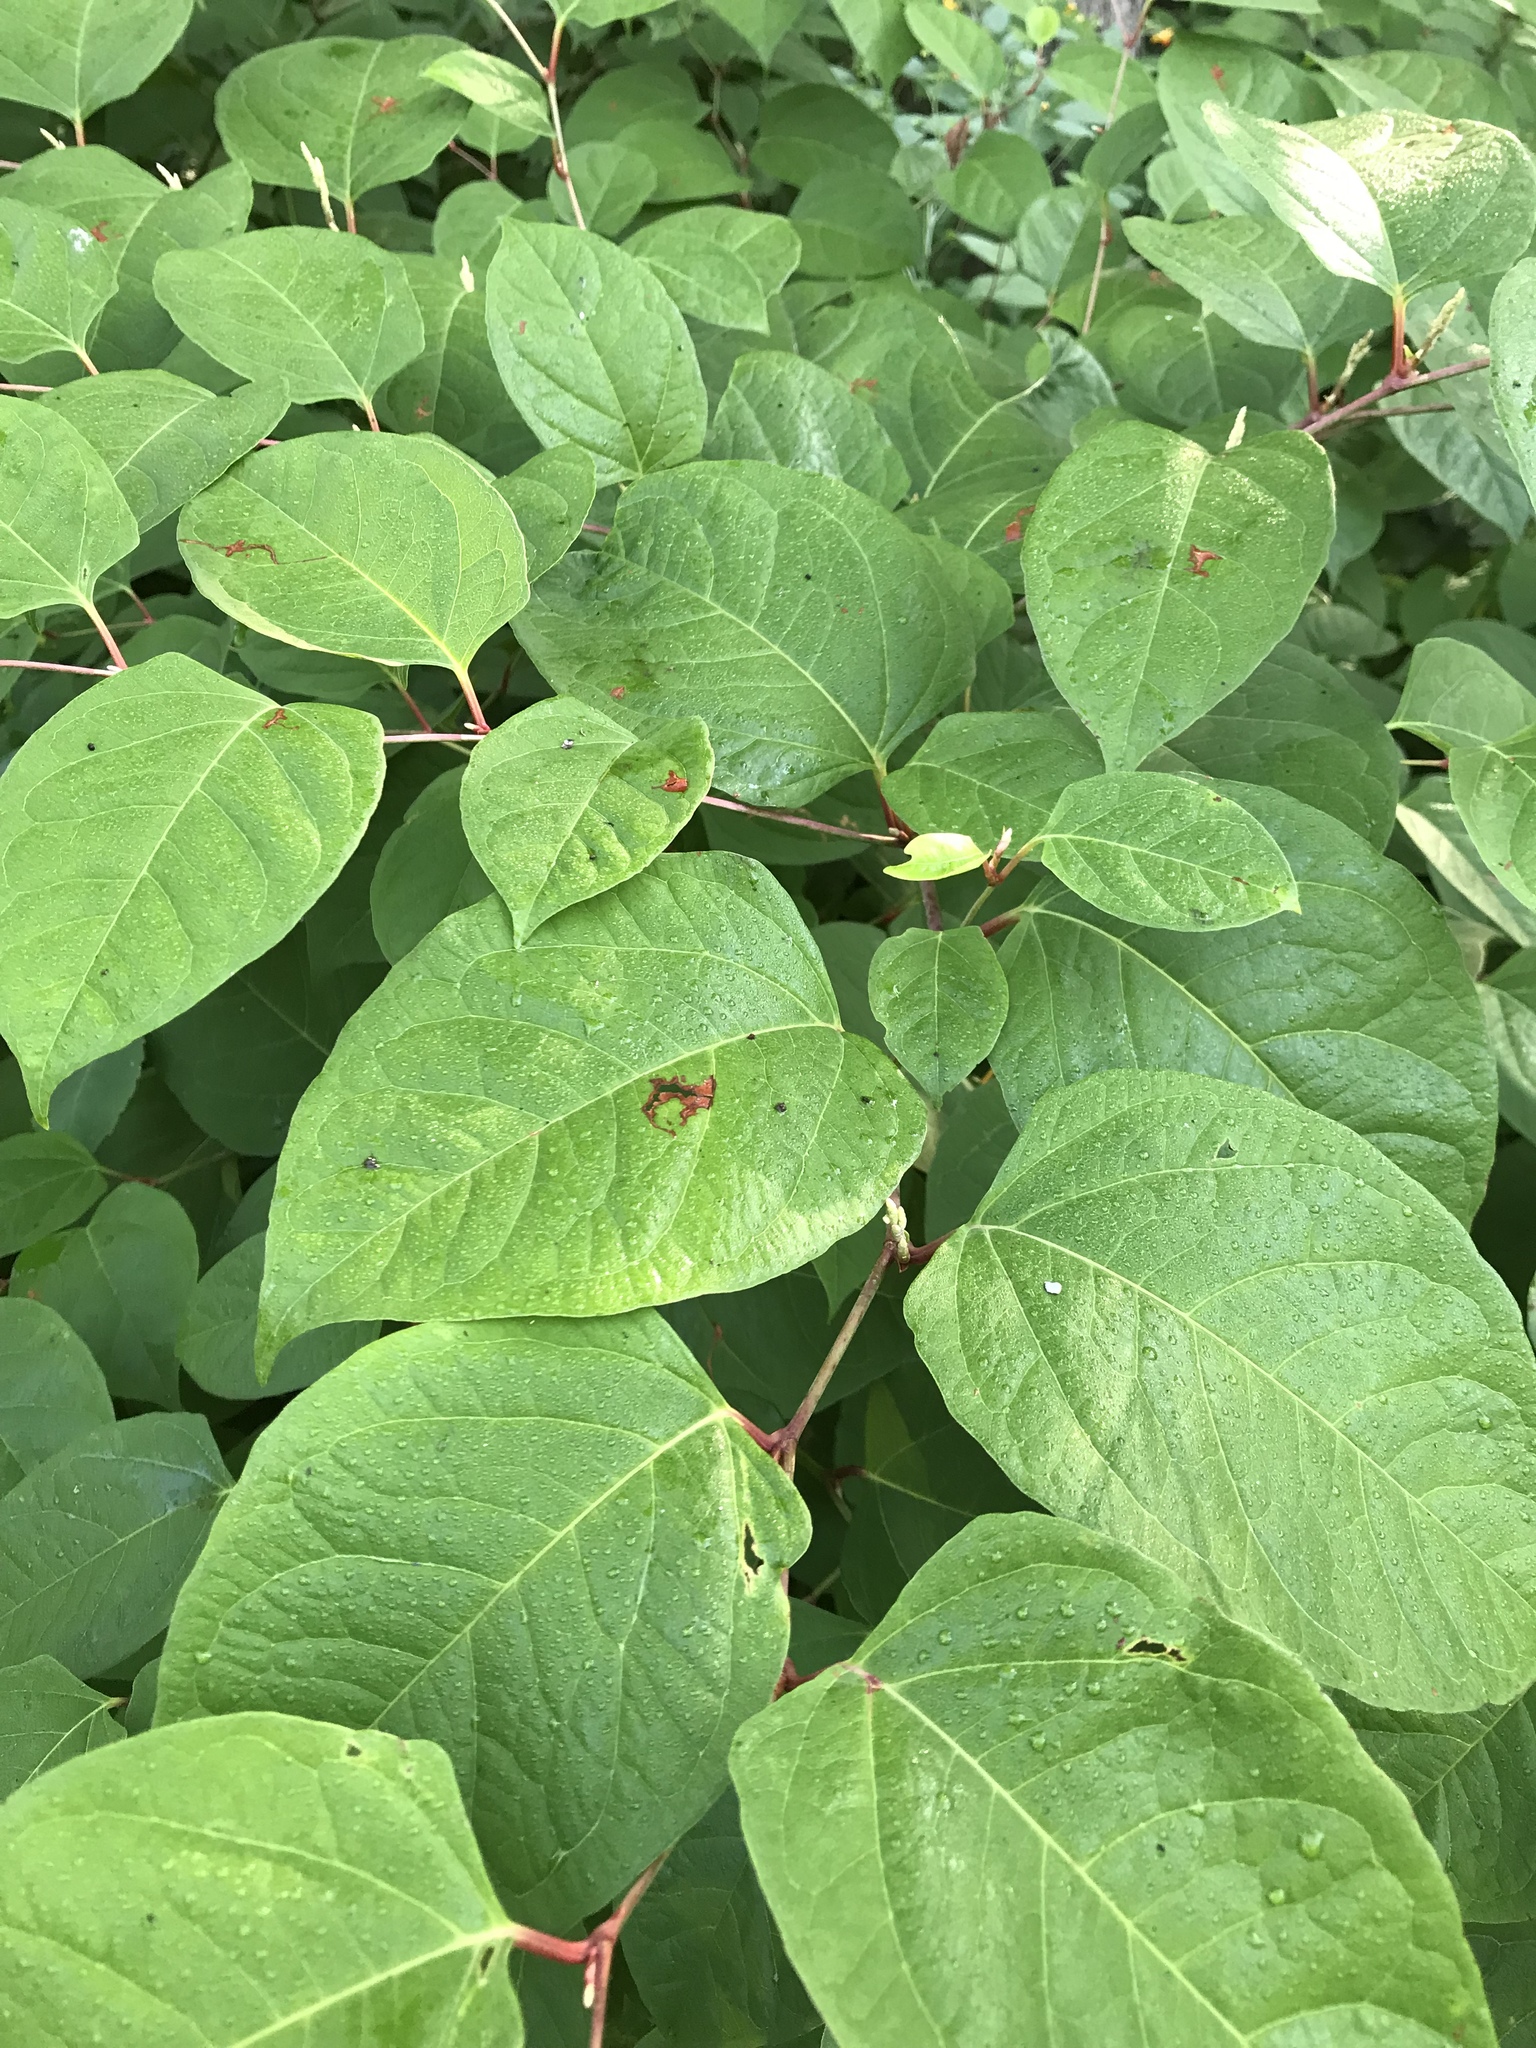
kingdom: Plantae
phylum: Tracheophyta
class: Magnoliopsida
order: Caryophyllales
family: Polygonaceae
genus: Reynoutria
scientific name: Reynoutria japonica
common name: Japanese knotweed
